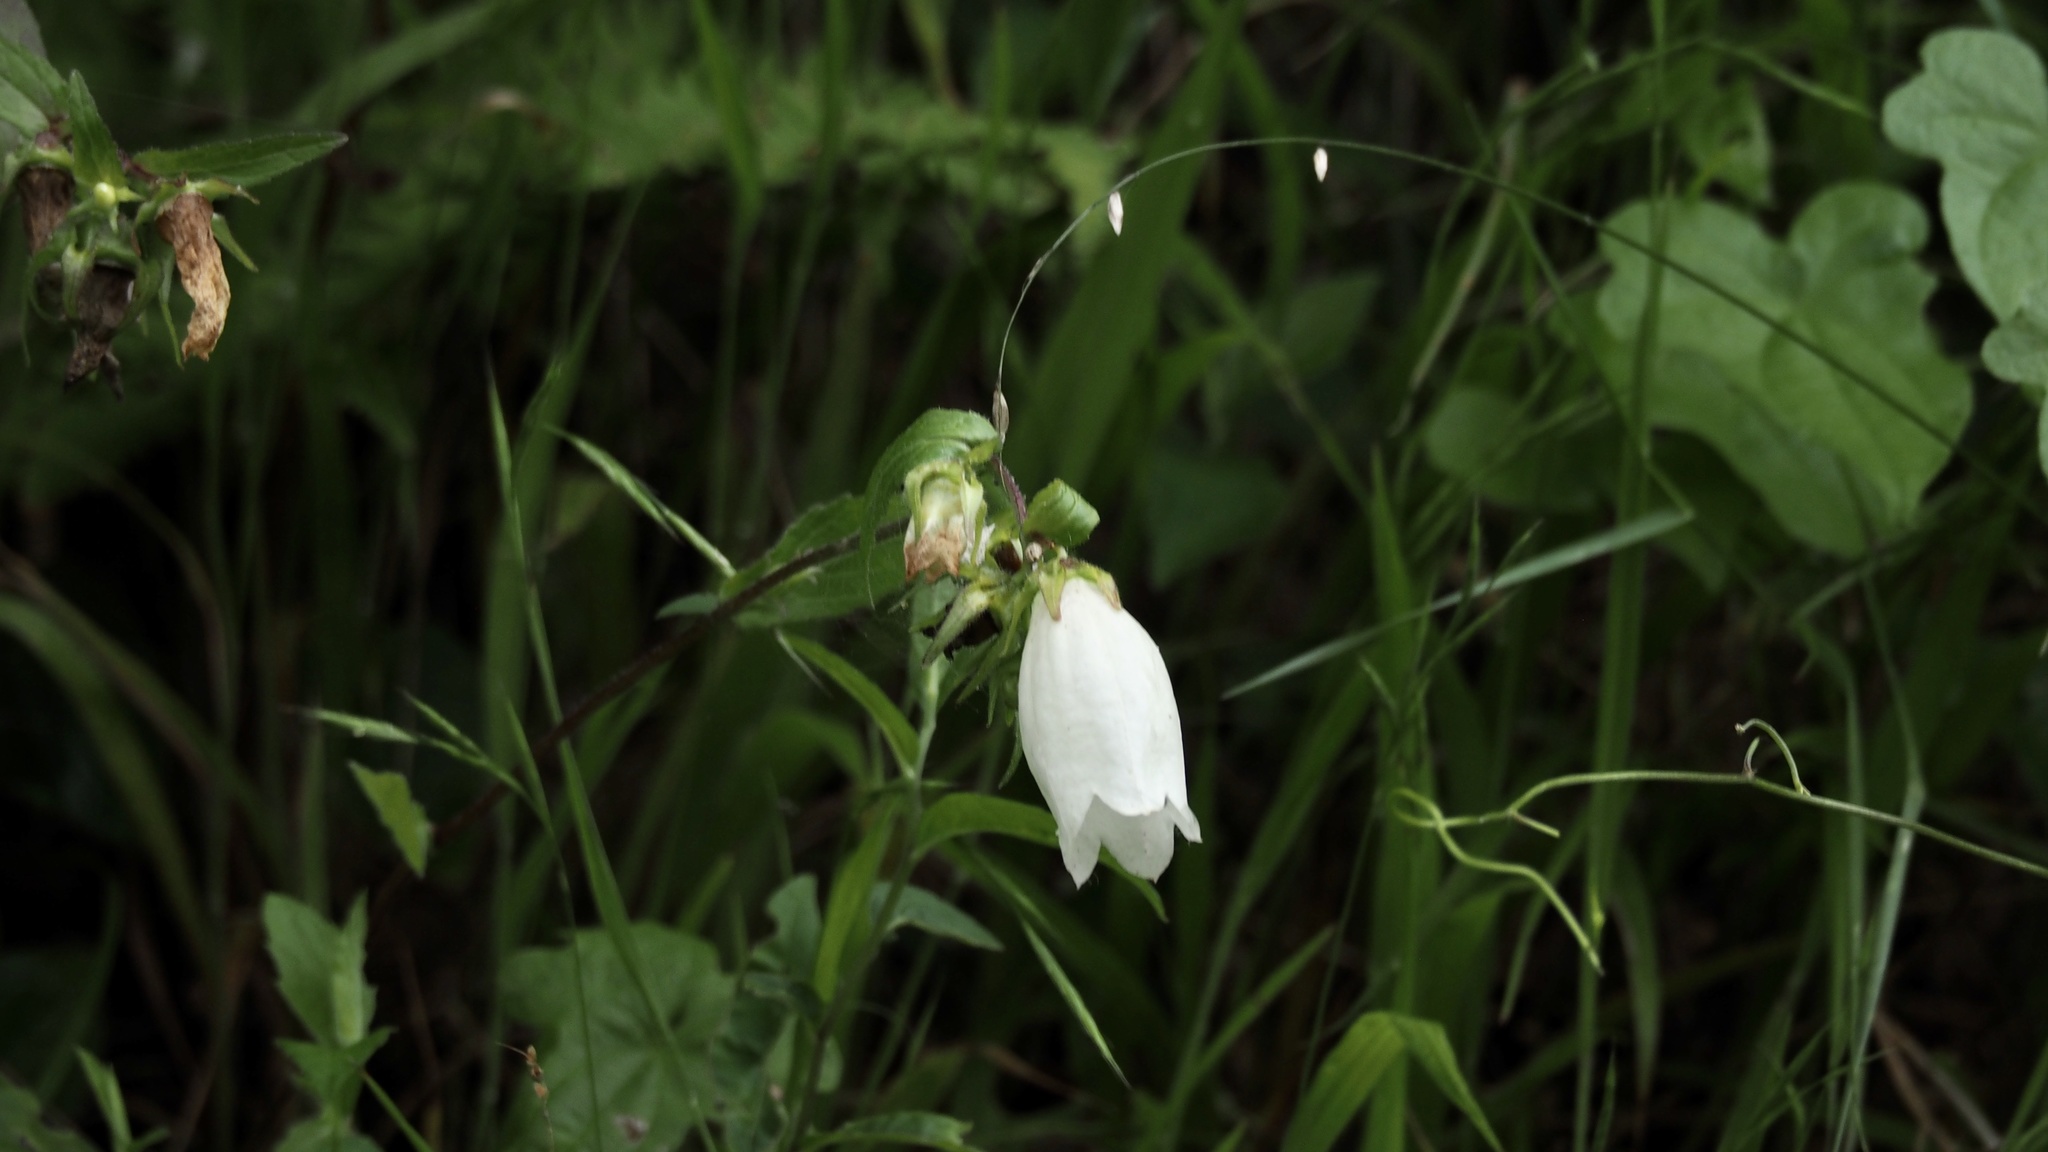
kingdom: Plantae
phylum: Tracheophyta
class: Magnoliopsida
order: Asterales
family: Campanulaceae
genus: Campanula
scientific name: Campanula punctata
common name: Spotted bellflower
